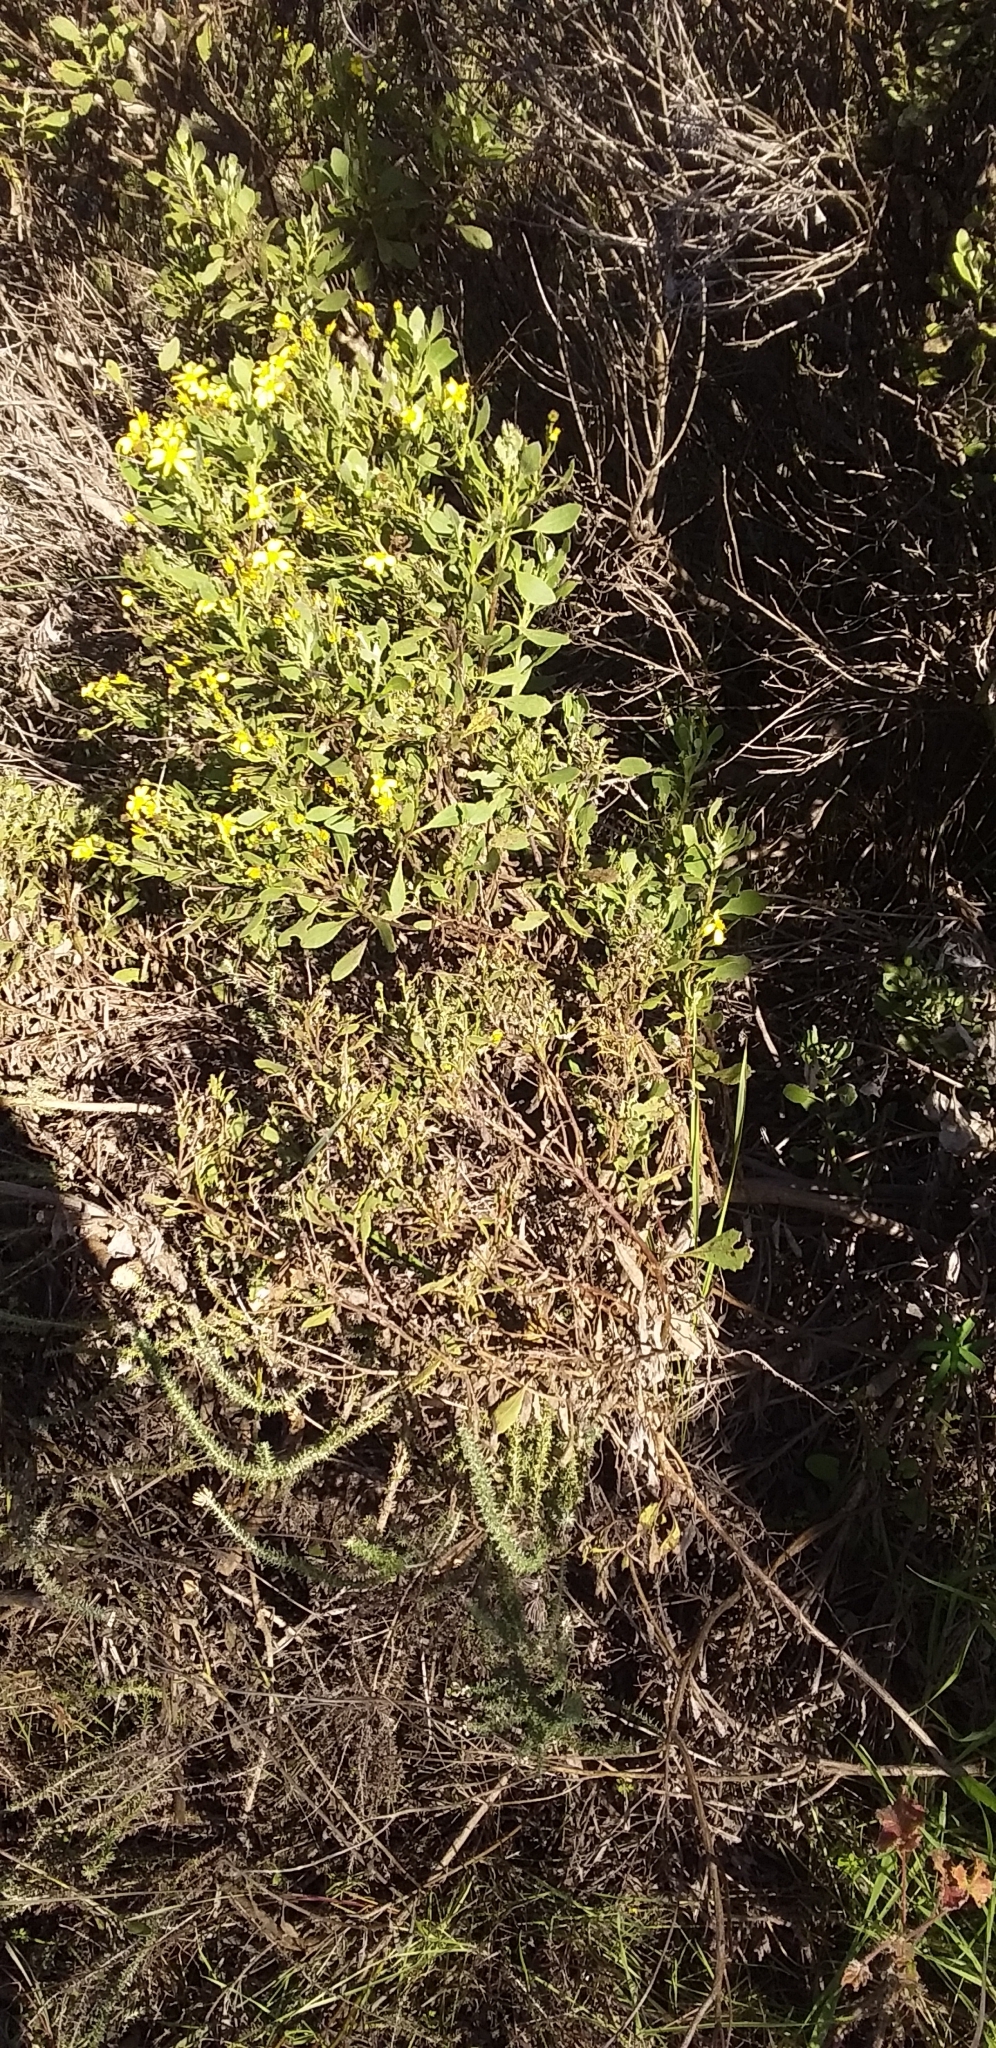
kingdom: Plantae
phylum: Tracheophyta
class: Magnoliopsida
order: Asterales
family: Asteraceae
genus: Osteospermum
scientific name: Osteospermum moniliferum
